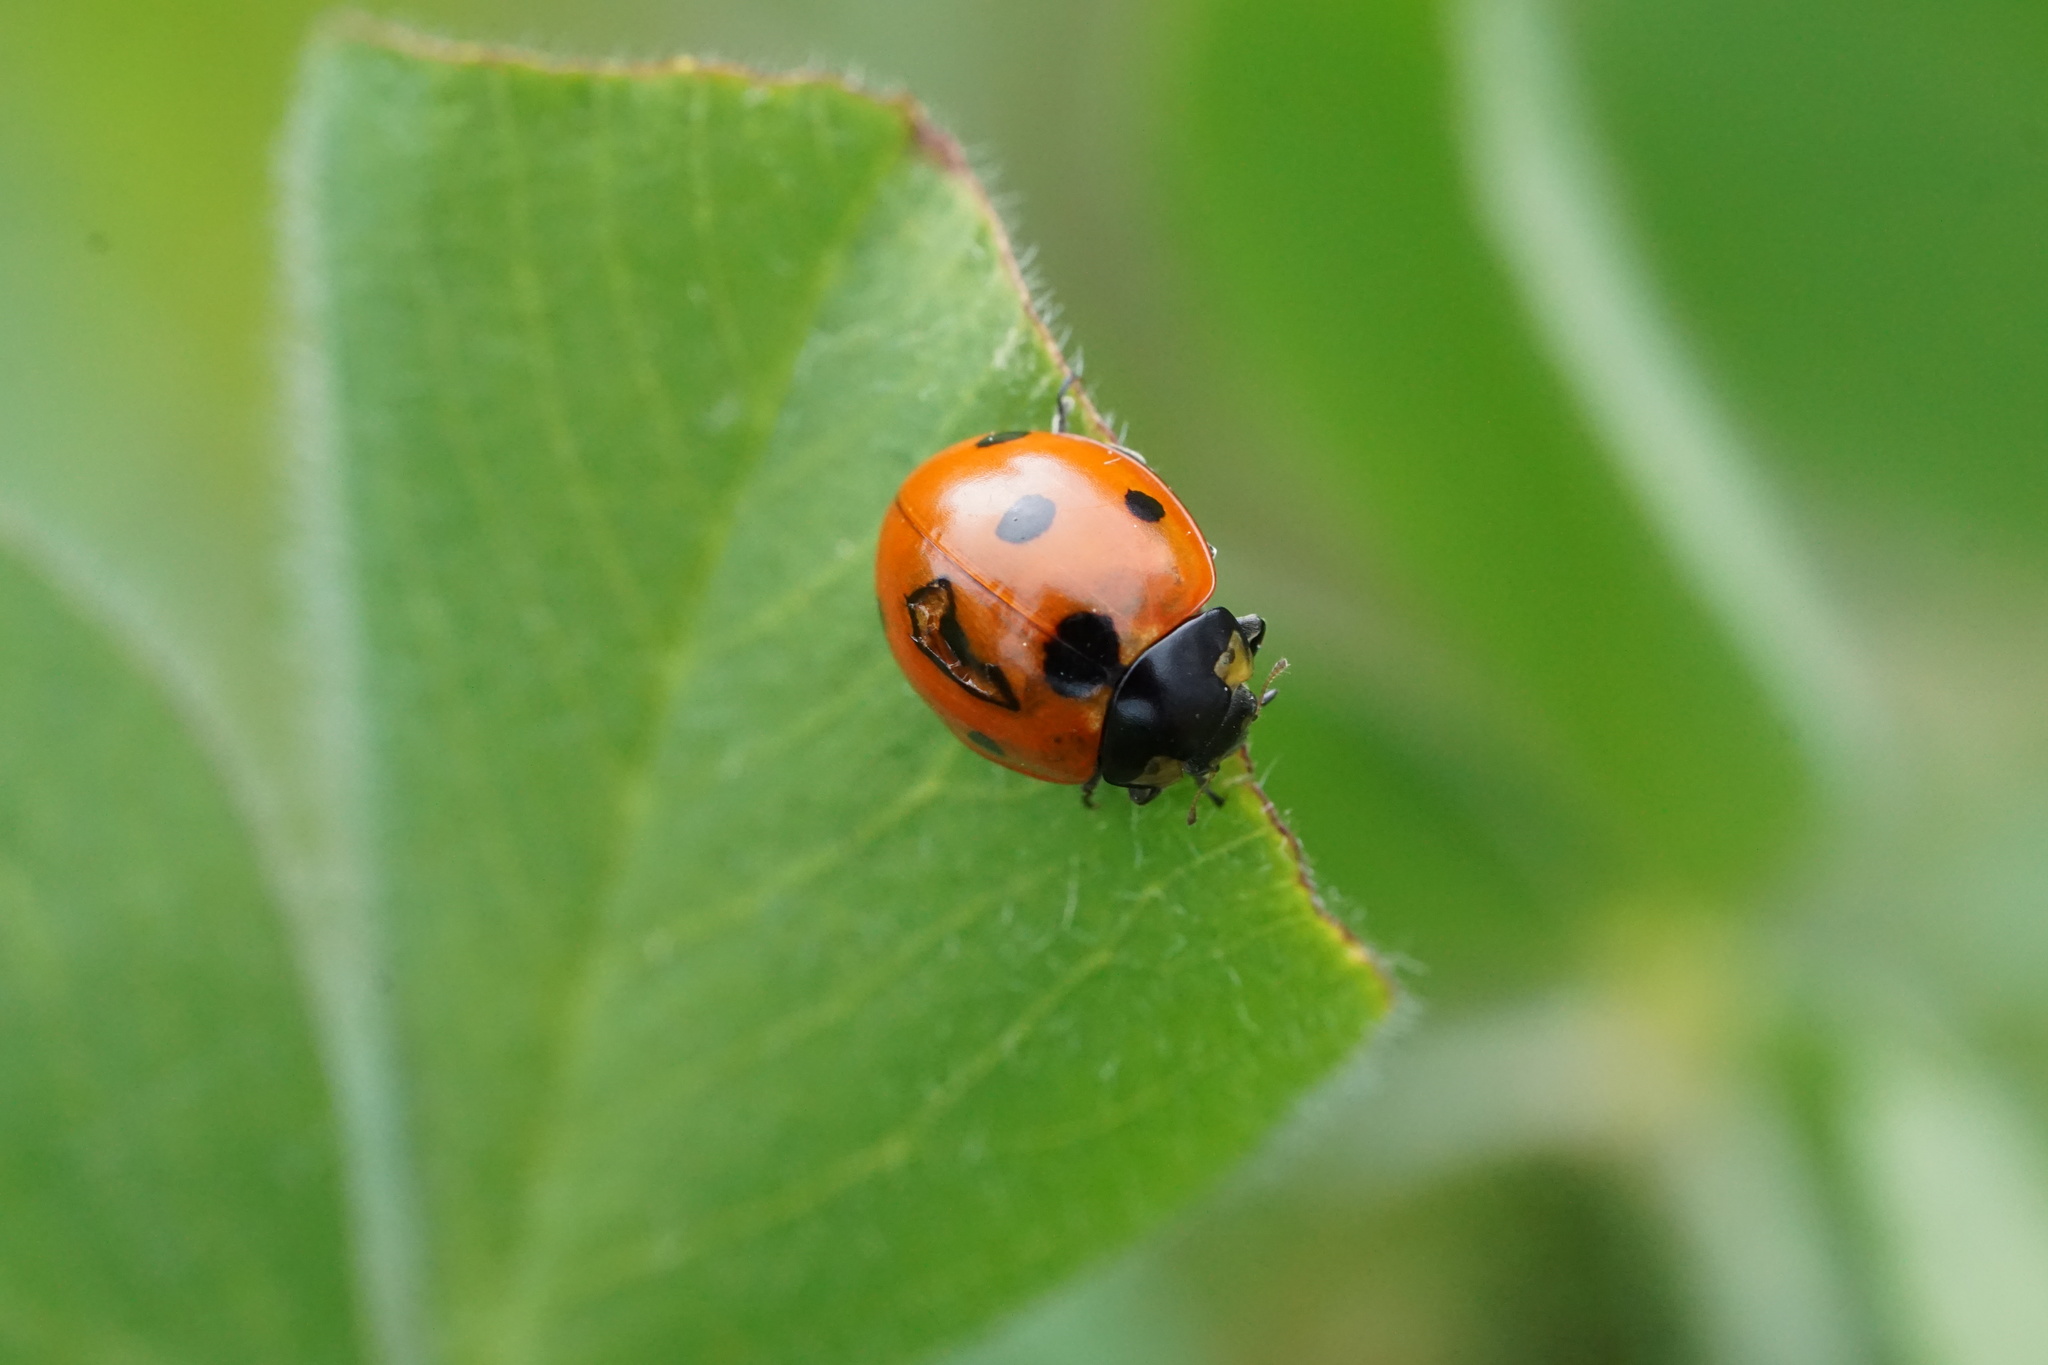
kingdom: Animalia
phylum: Arthropoda
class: Insecta
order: Coleoptera
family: Coccinellidae
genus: Coccinella
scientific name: Coccinella septempunctata
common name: Sevenspotted lady beetle
